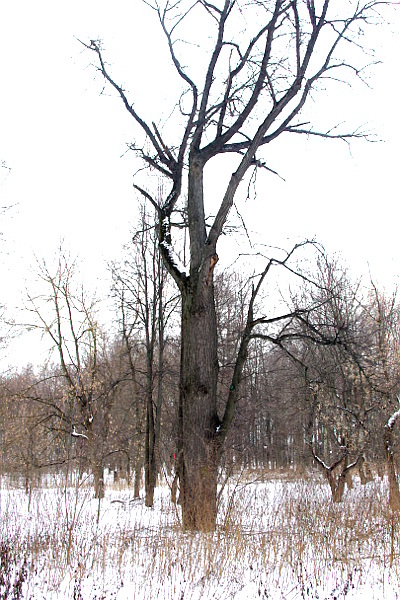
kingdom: Plantae
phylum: Tracheophyta
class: Magnoliopsida
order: Fagales
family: Fagaceae
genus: Quercus
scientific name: Quercus robur
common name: Pedunculate oak
